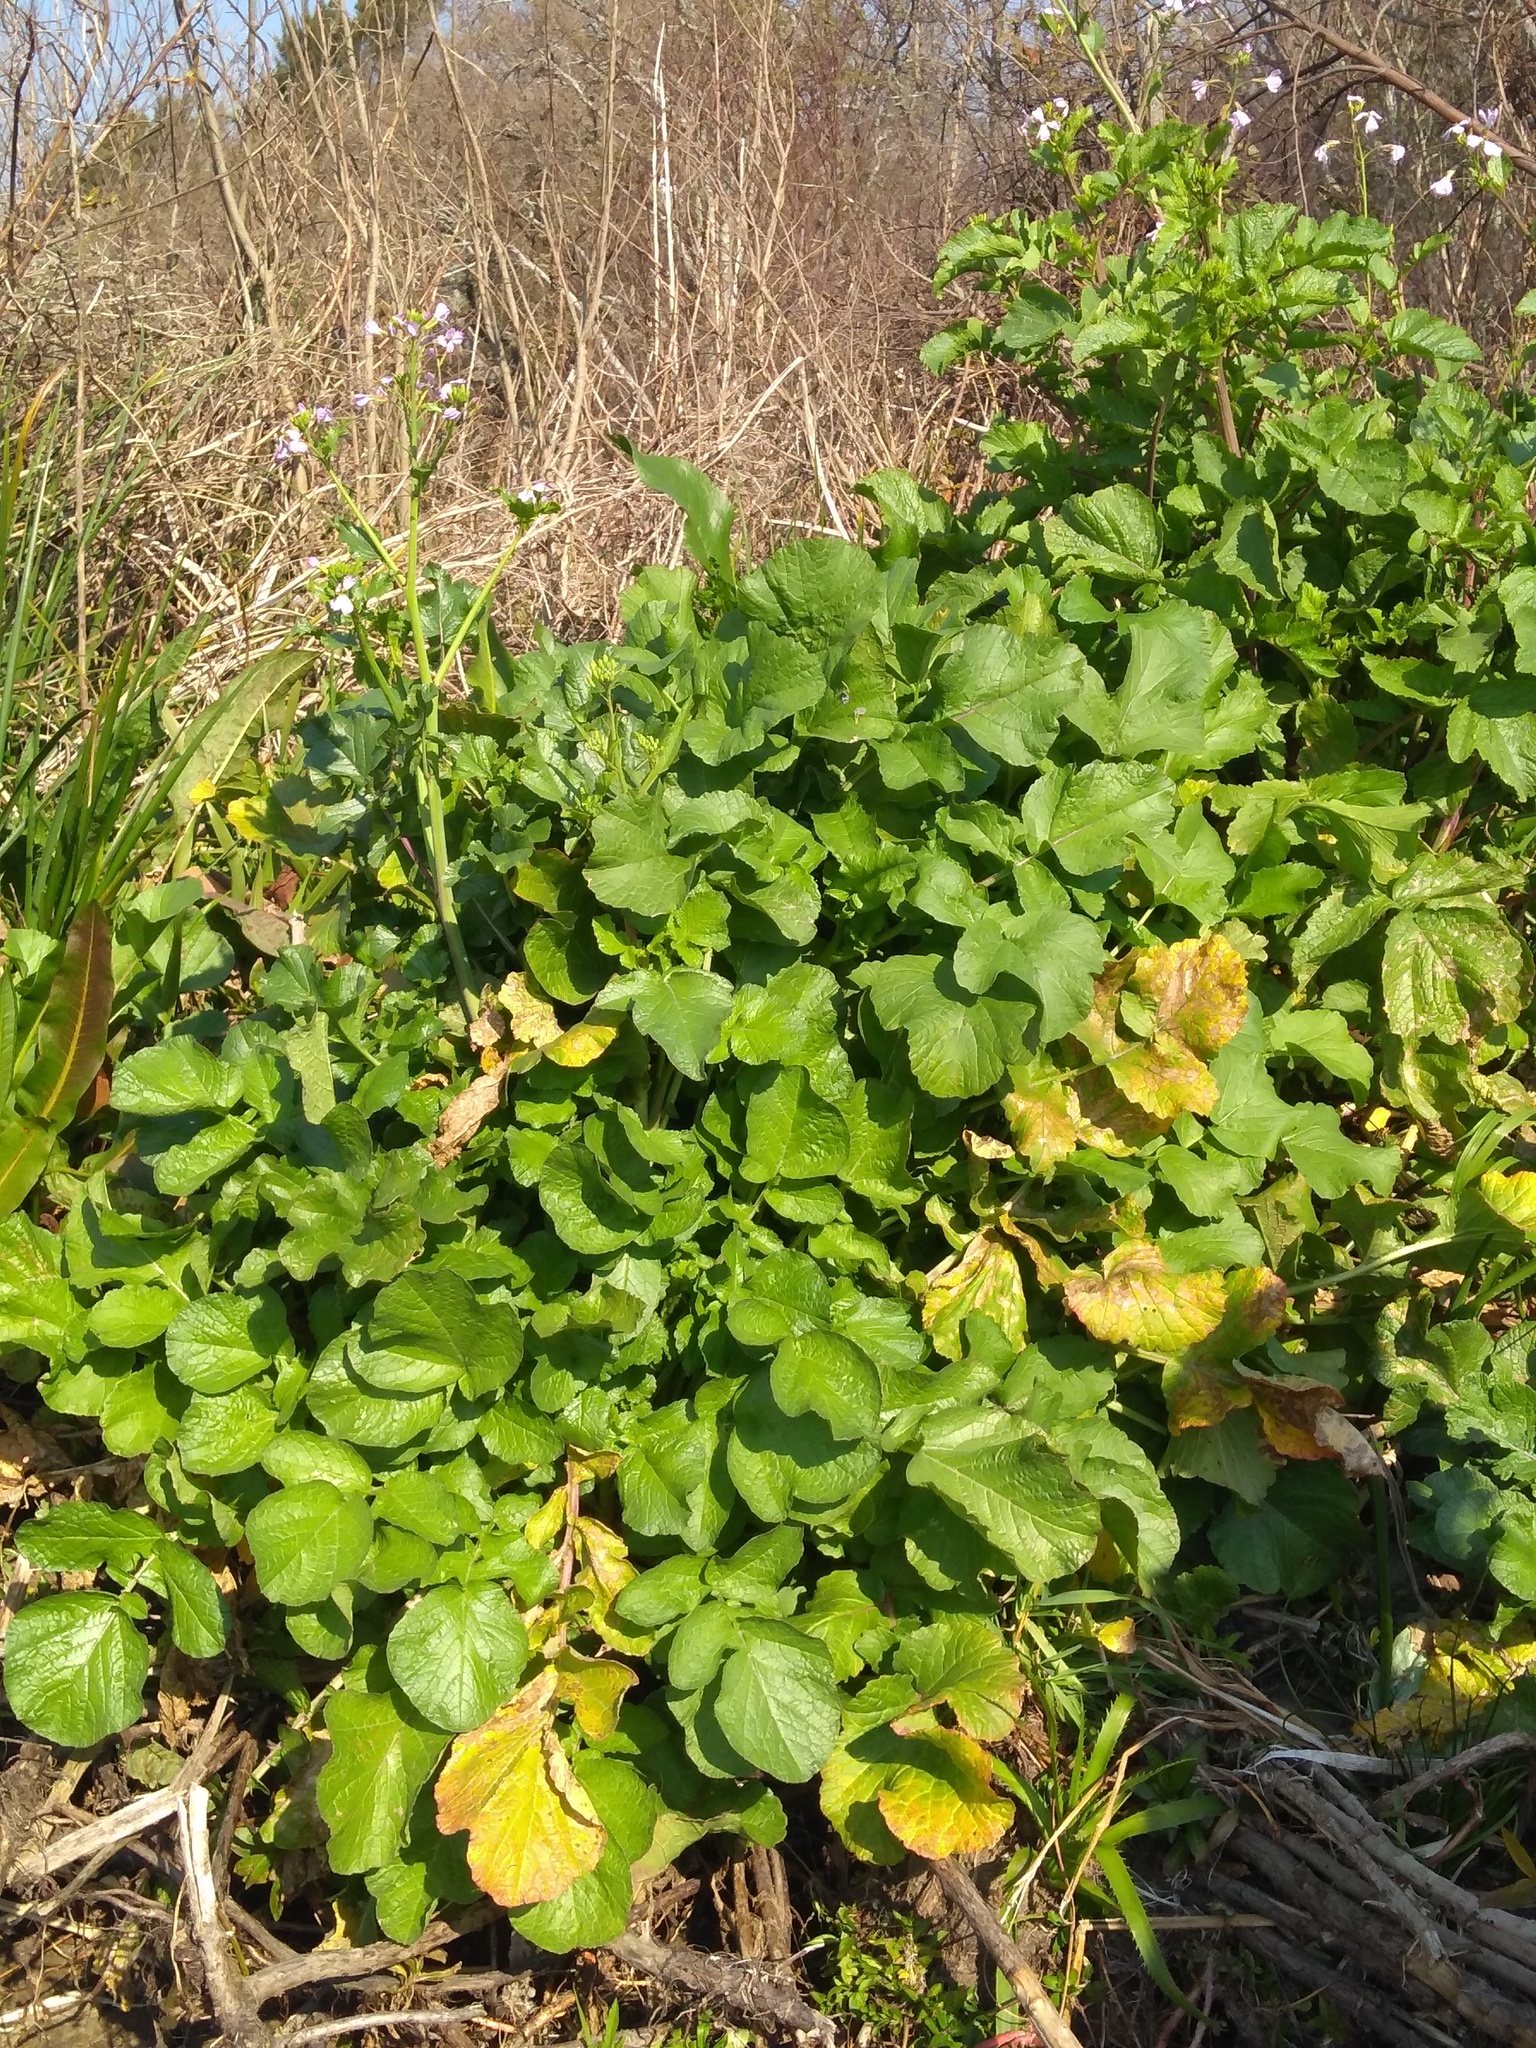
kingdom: Plantae
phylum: Tracheophyta
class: Magnoliopsida
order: Brassicales
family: Brassicaceae
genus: Raphanus
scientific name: Raphanus sativus
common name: Cultivated radish
